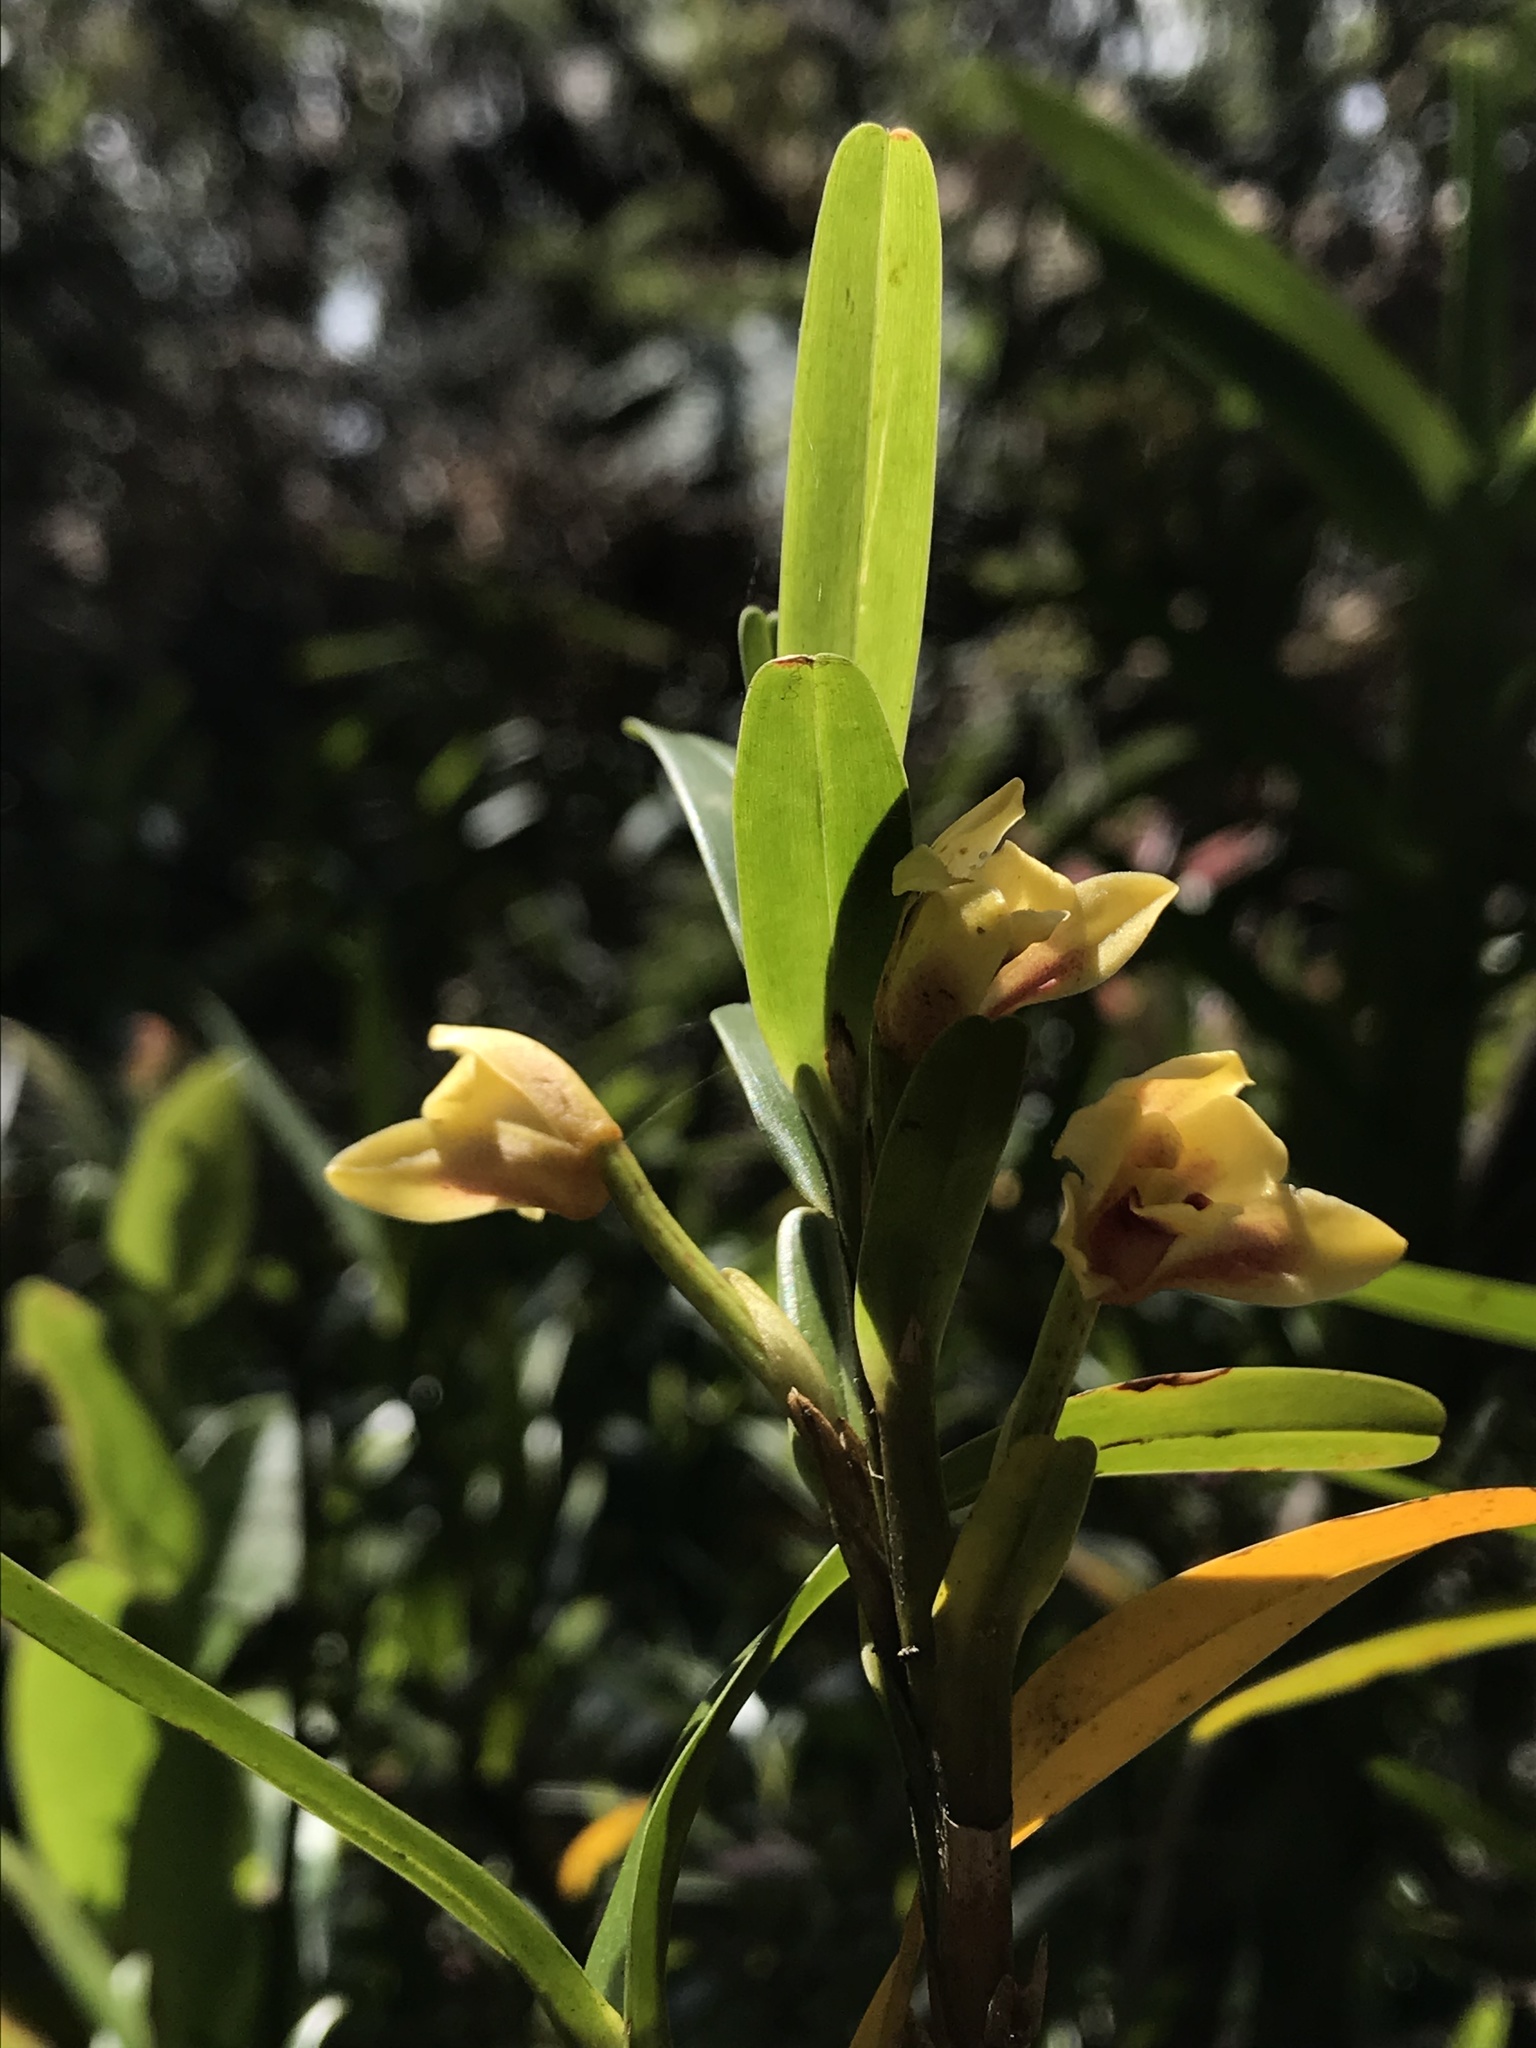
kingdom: Plantae
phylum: Tracheophyta
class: Liliopsida
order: Asparagales
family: Orchidaceae
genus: Maxillaria
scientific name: Maxillaria ponerantha
